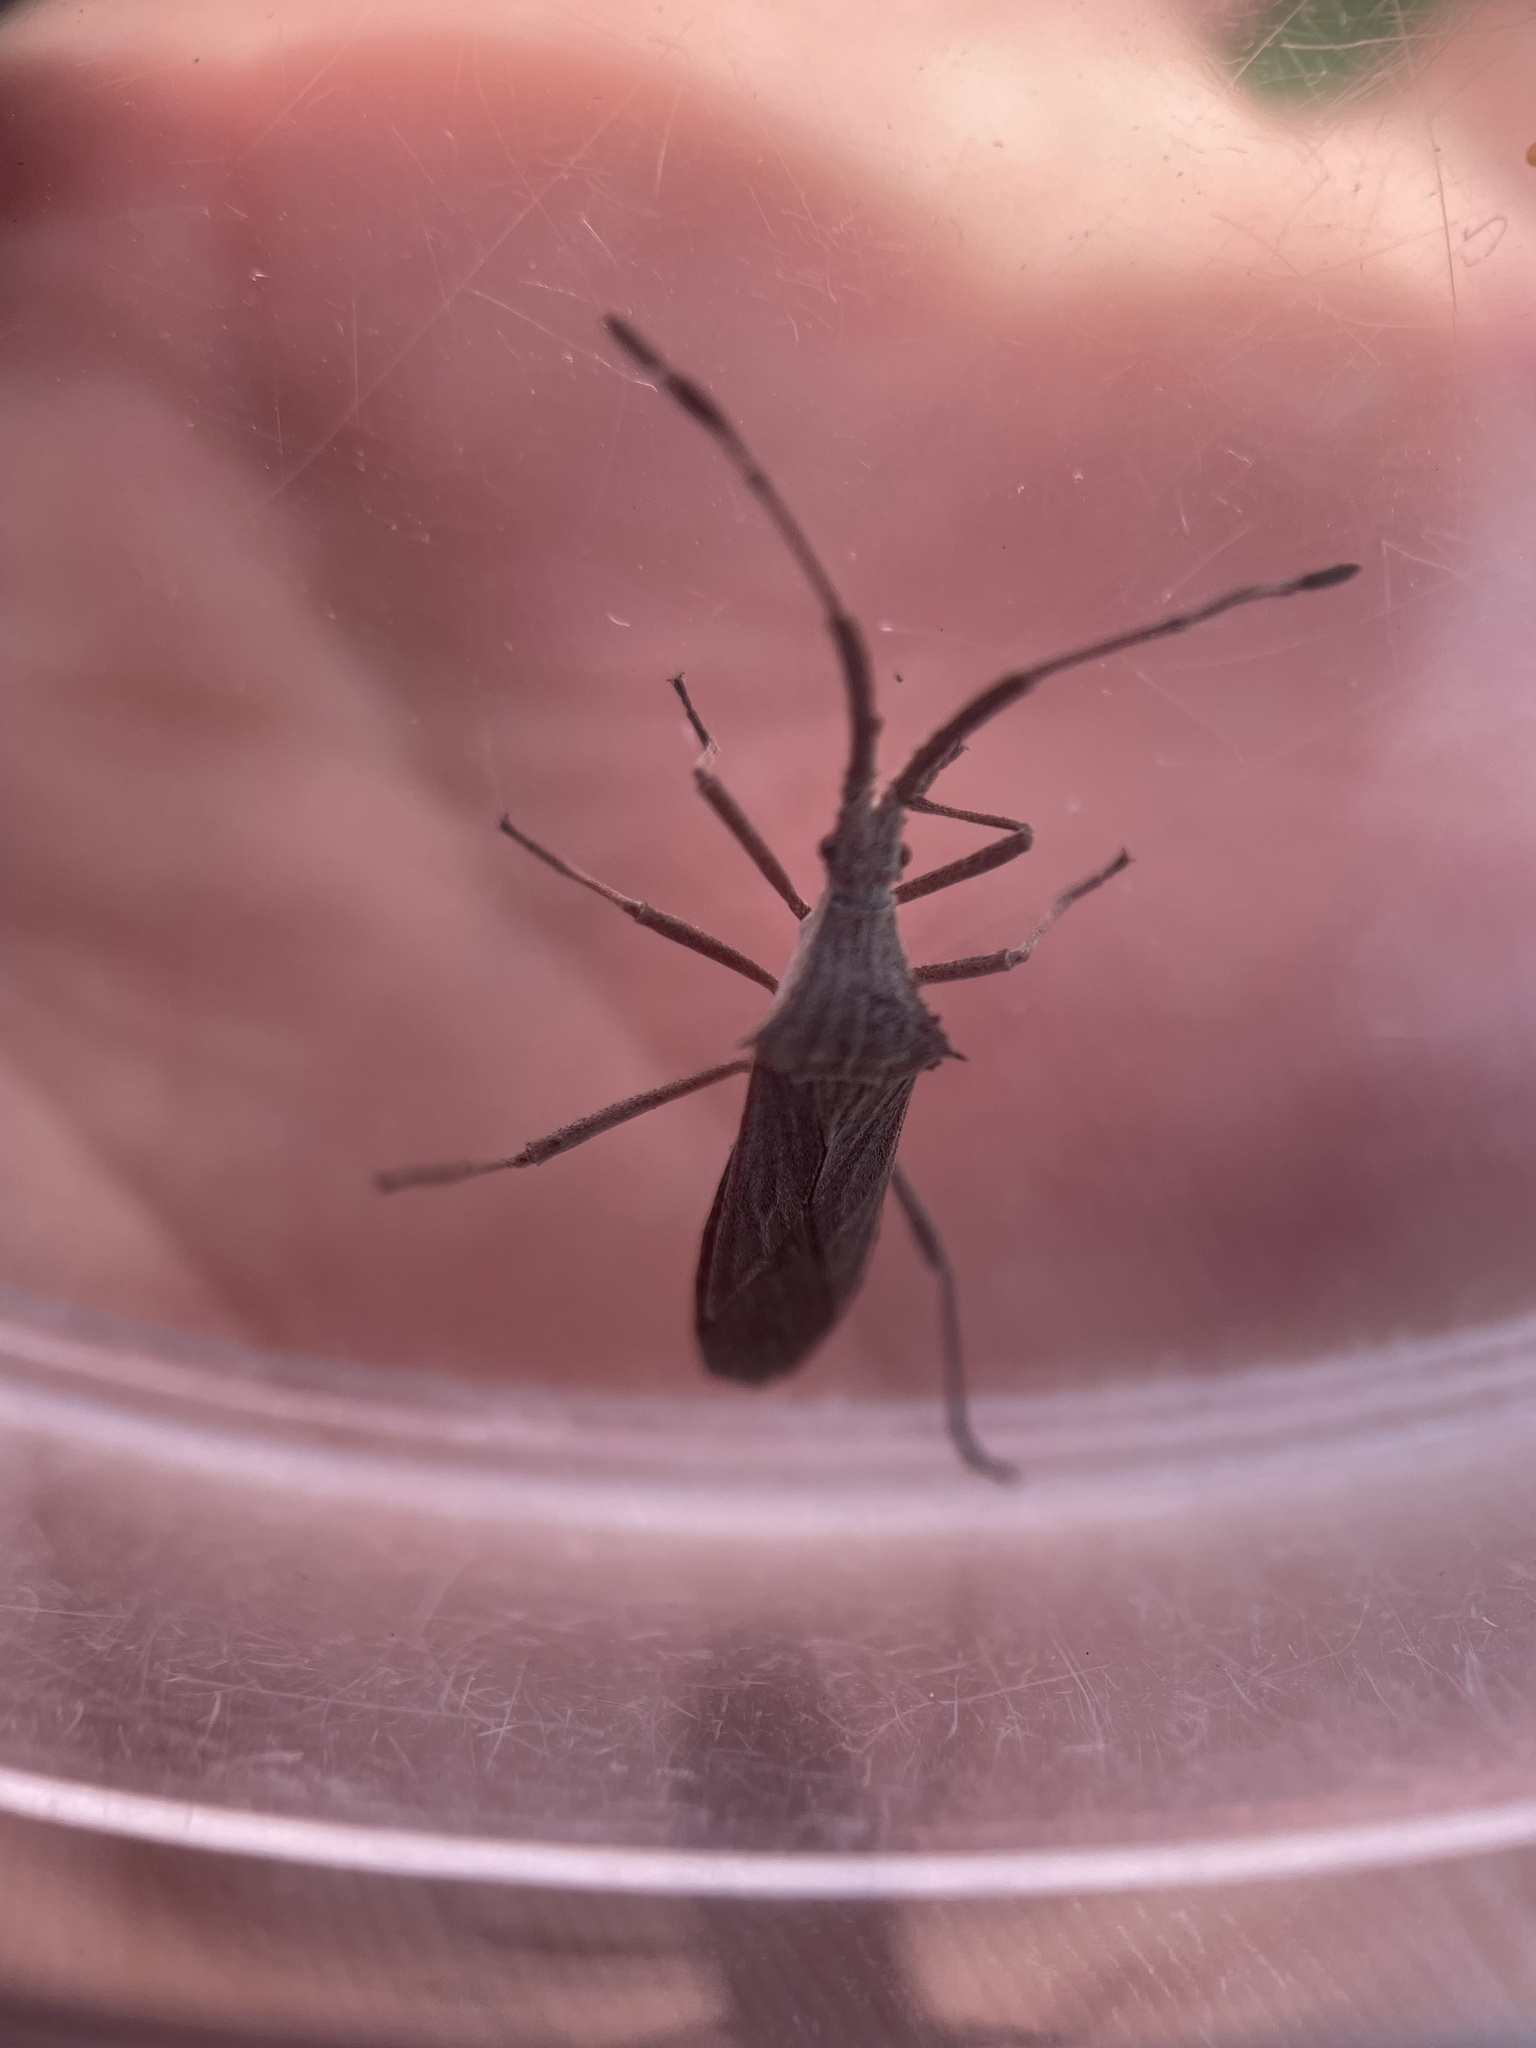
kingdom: Animalia
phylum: Arthropoda
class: Insecta
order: Hemiptera
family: Coreidae
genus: Chariesterus
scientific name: Chariesterus antennator
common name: Flat horned coreid
